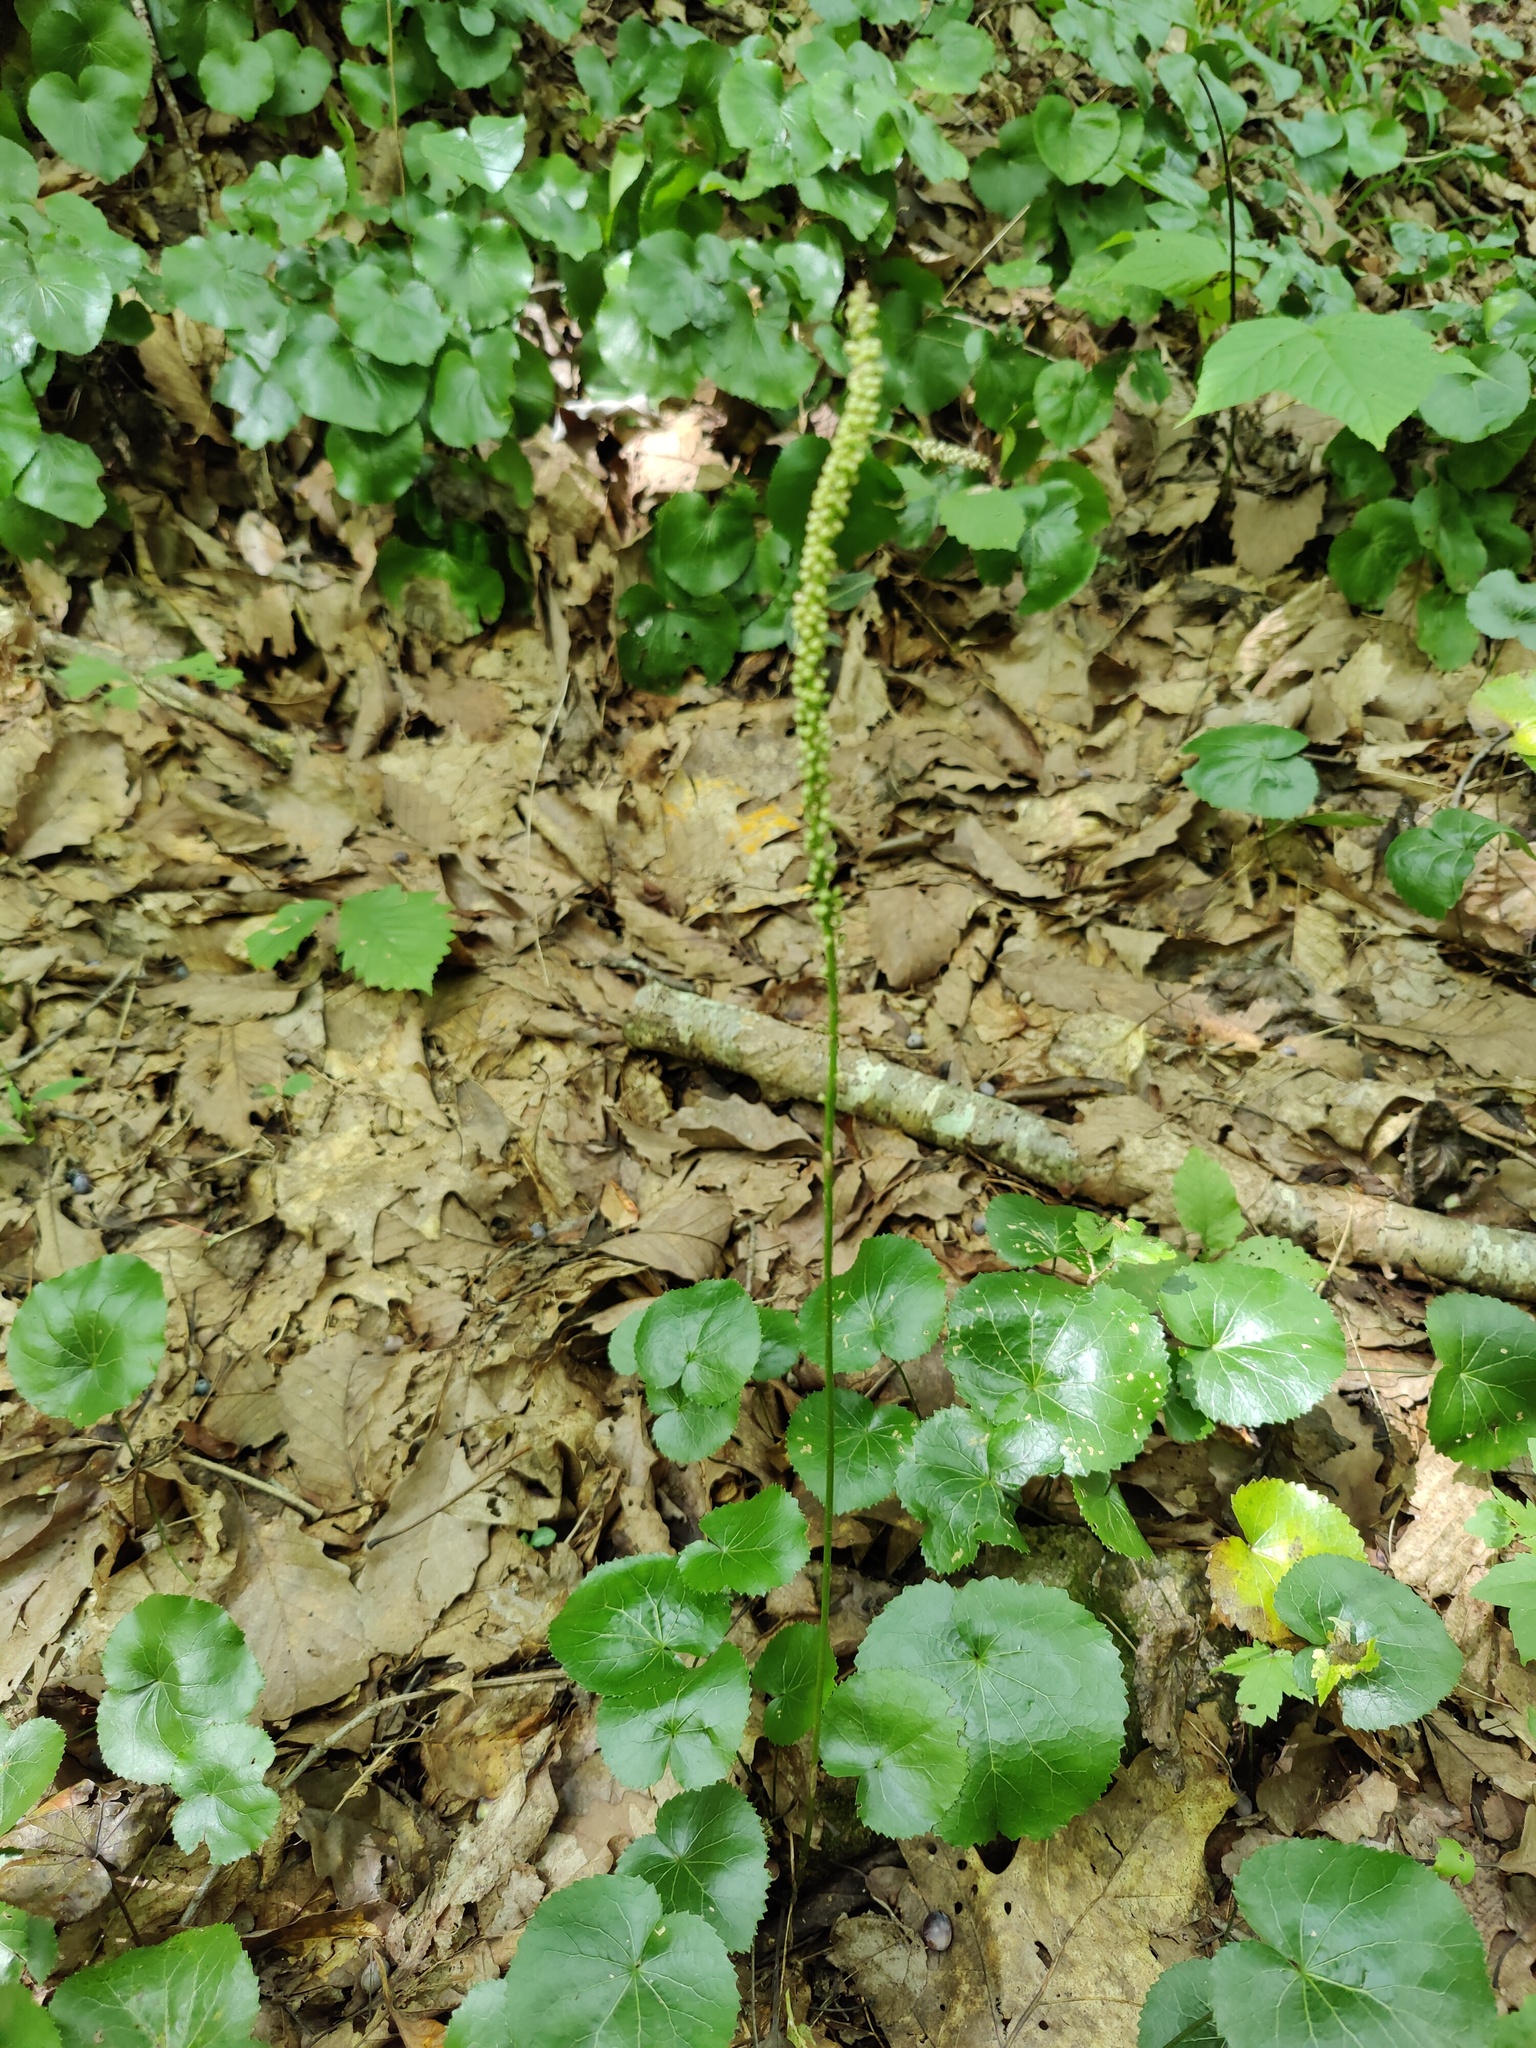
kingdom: Plantae
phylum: Tracheophyta
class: Magnoliopsida
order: Ericales
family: Diapensiaceae
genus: Galax
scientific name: Galax urceolata
